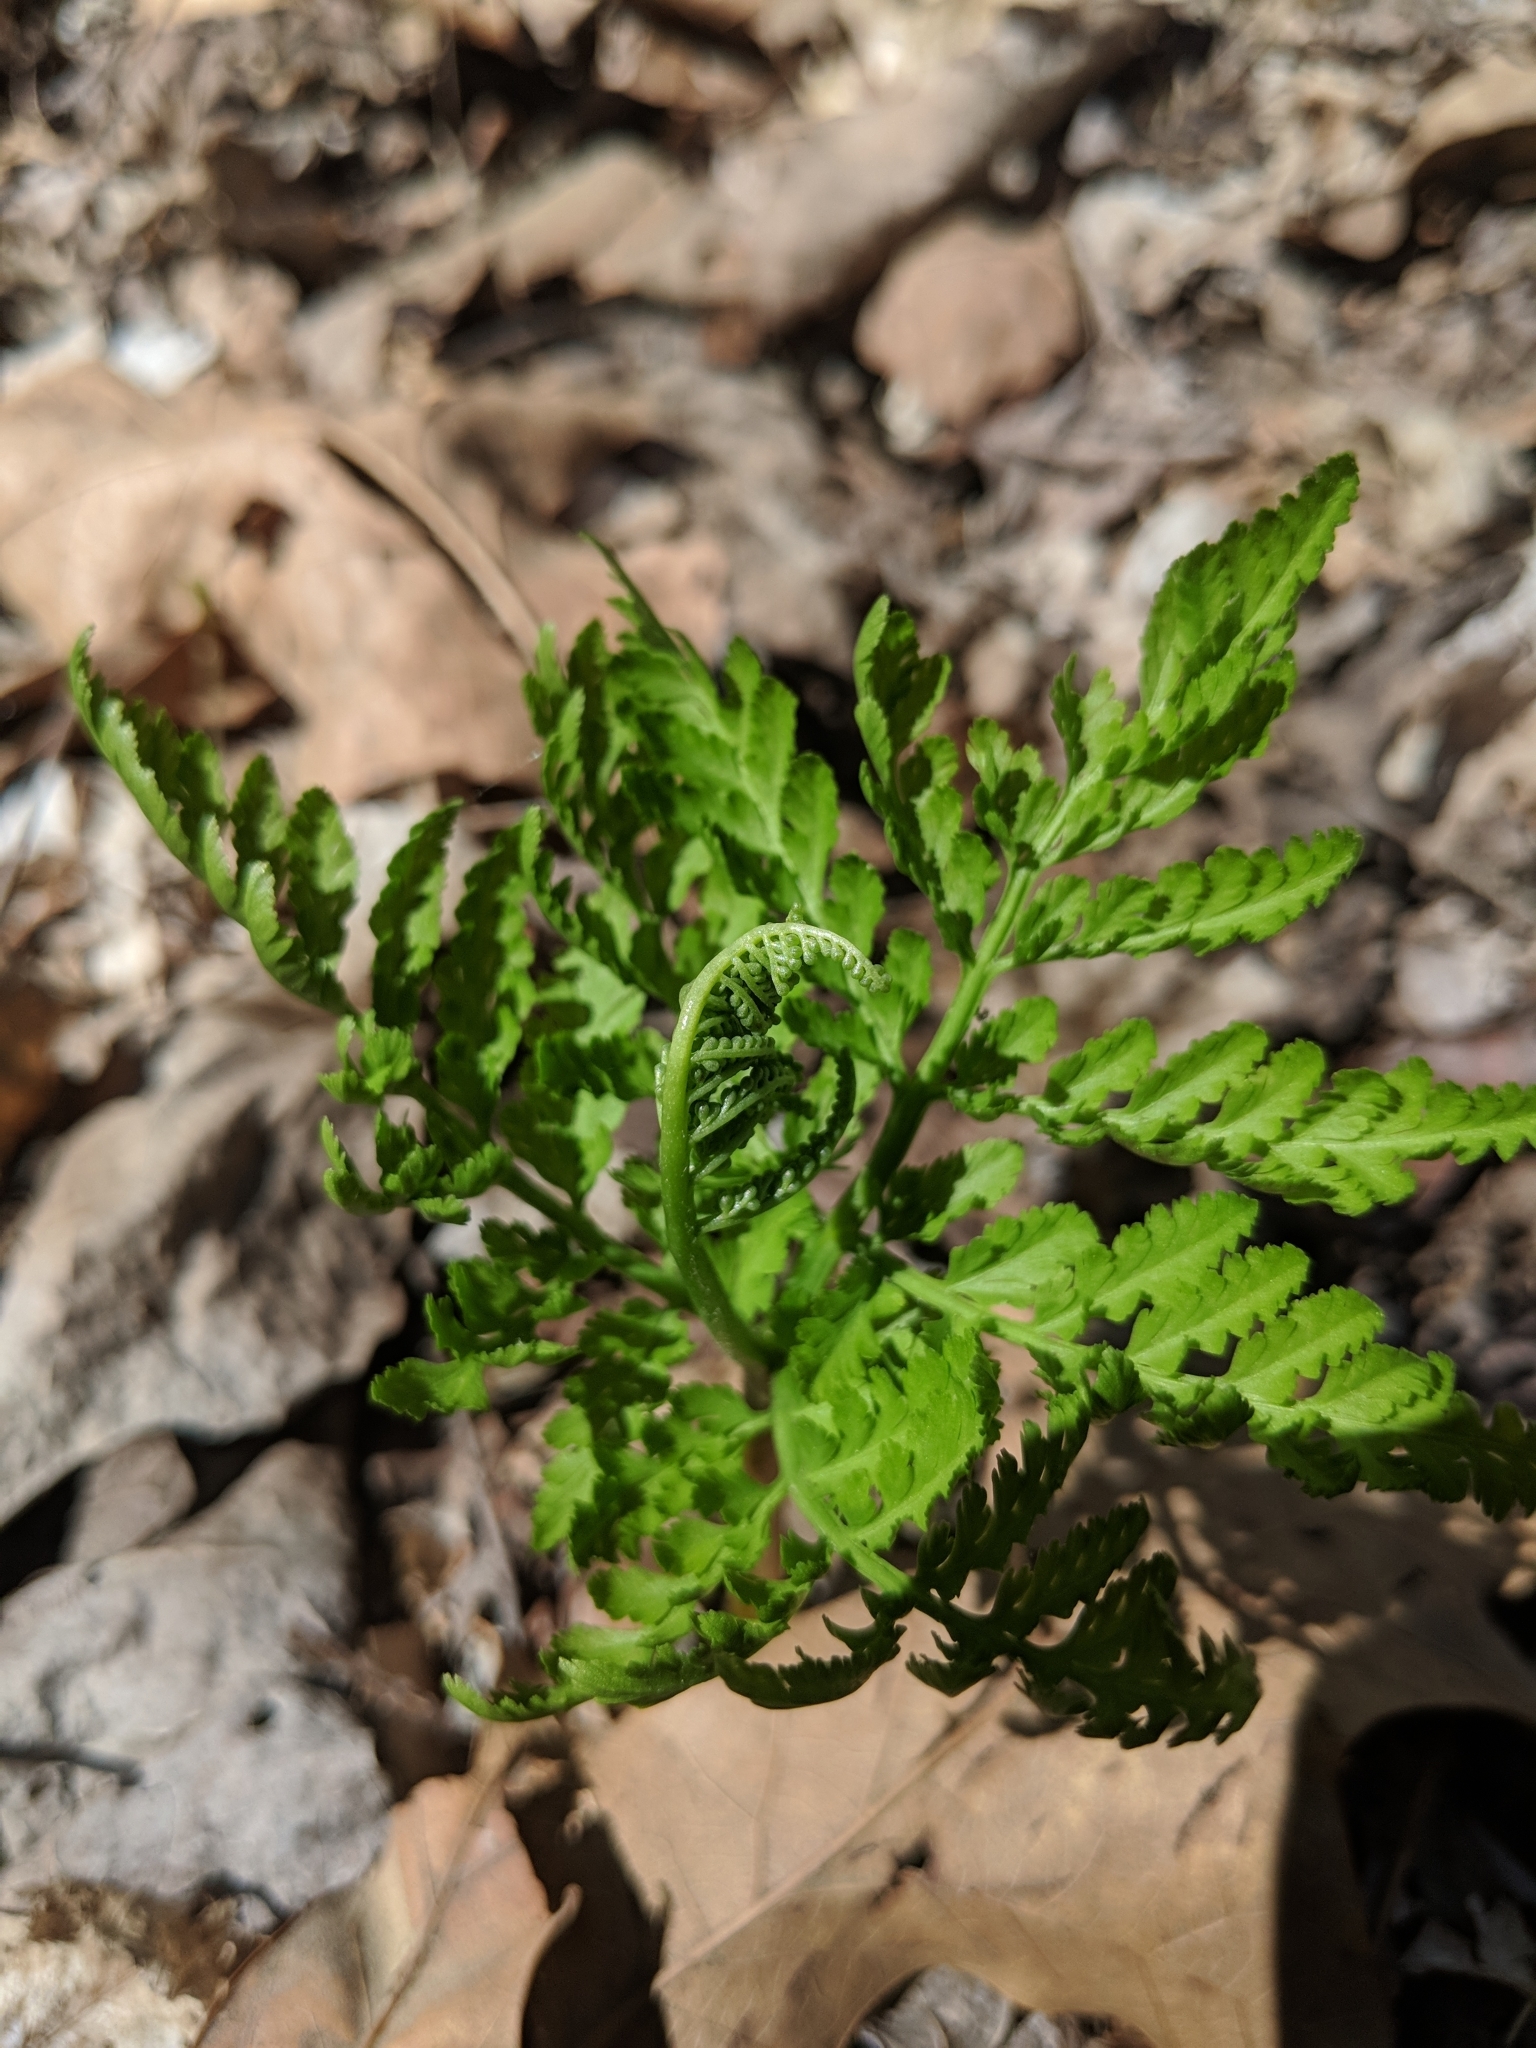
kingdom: Plantae
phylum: Tracheophyta
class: Polypodiopsida
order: Ophioglossales
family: Ophioglossaceae
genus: Botrypus
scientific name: Botrypus virginianus
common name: Common grapefern
